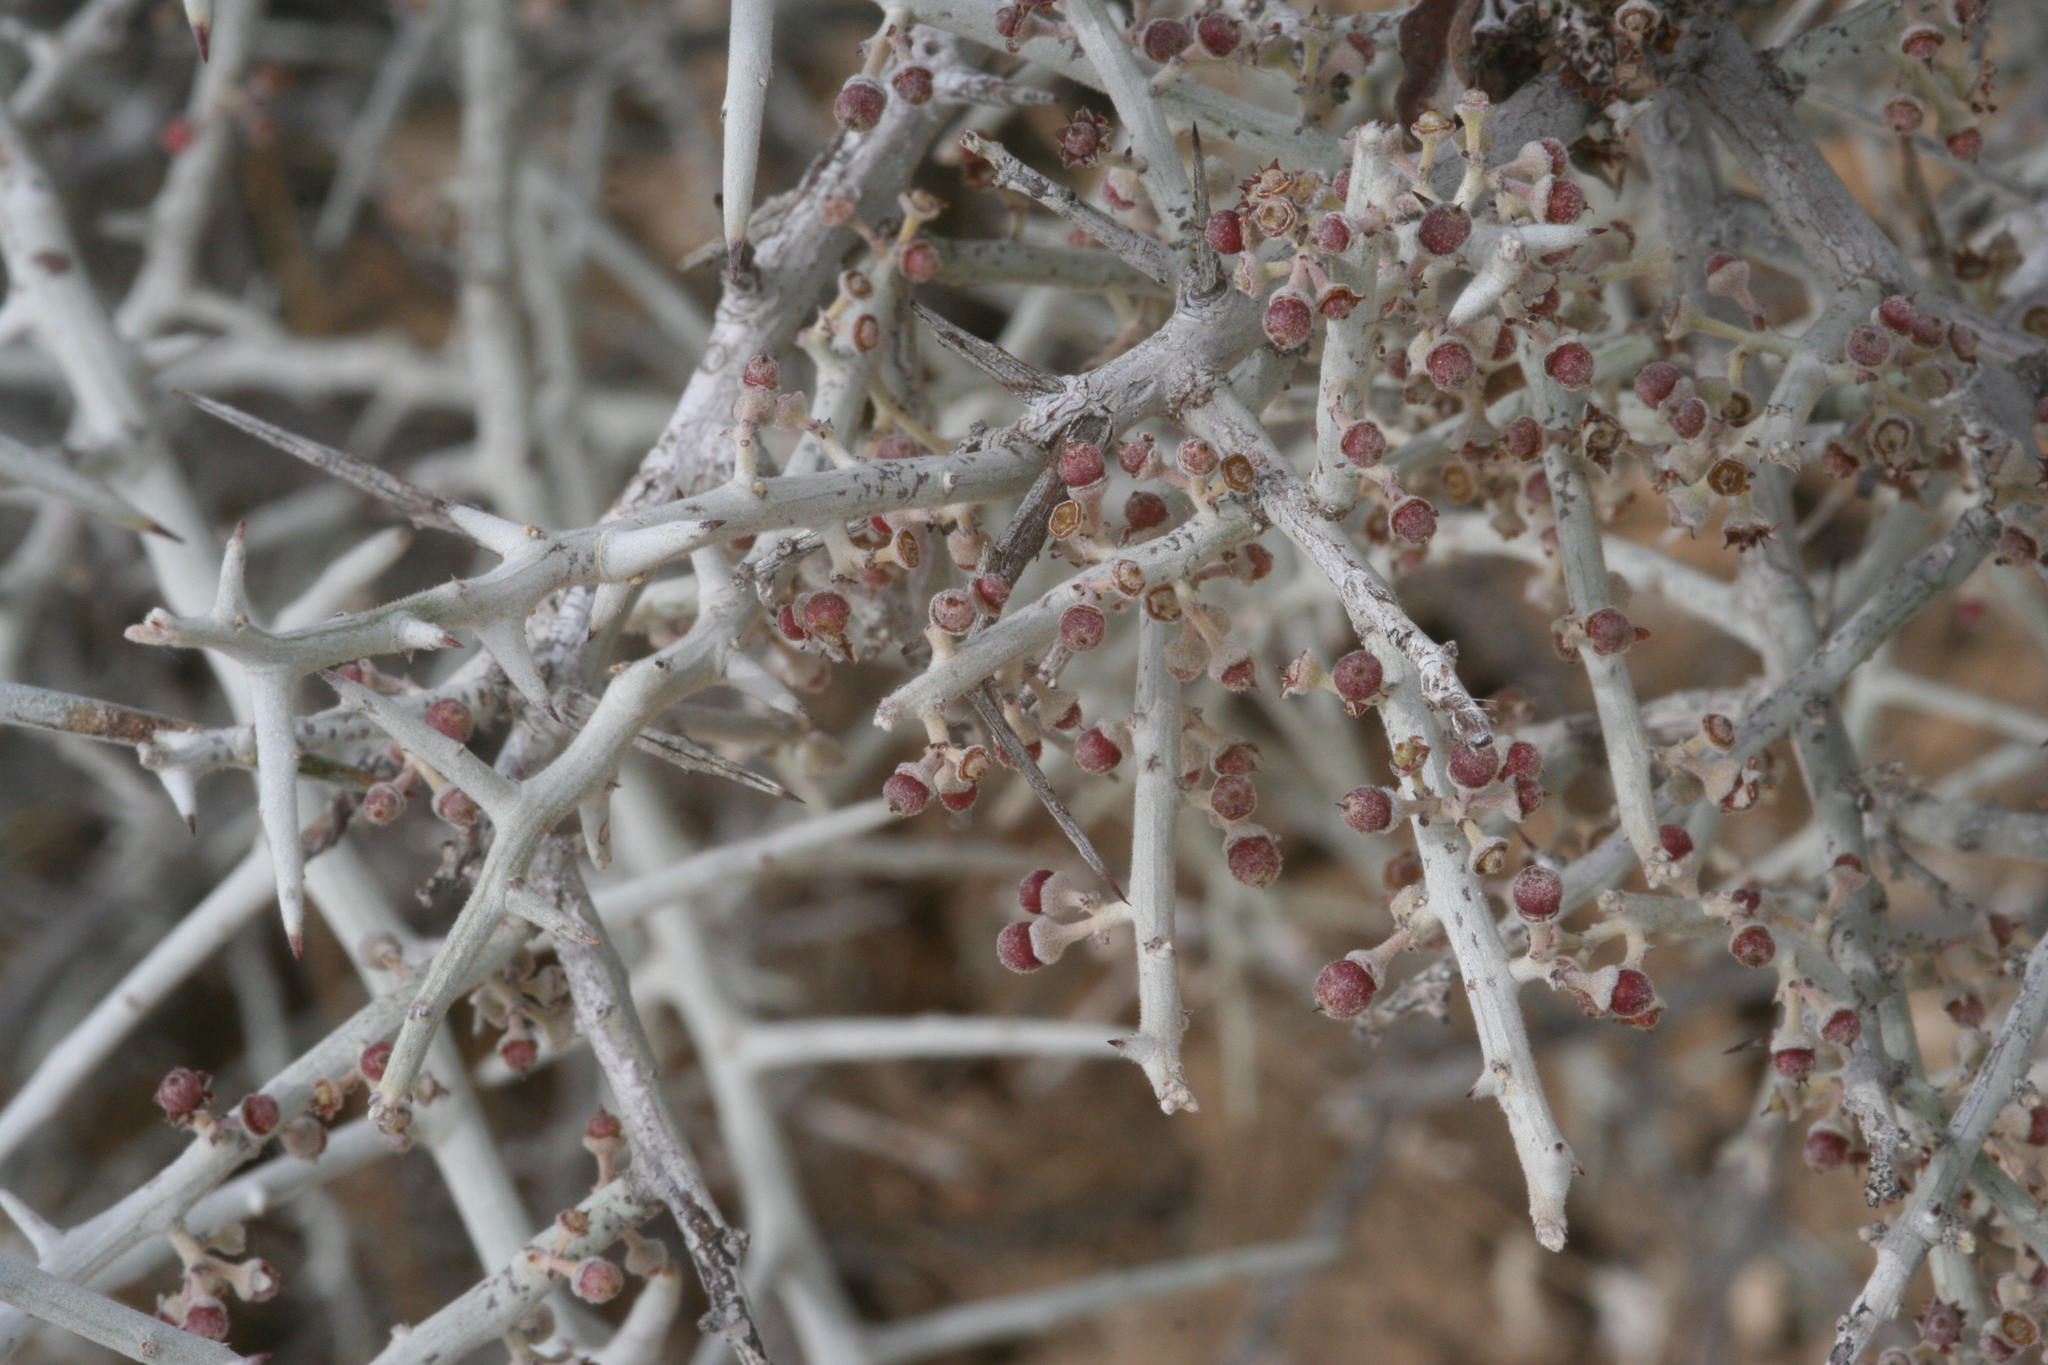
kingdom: Plantae
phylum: Tracheophyta
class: Magnoliopsida
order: Rosales
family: Rhamnaceae
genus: Sarcomphalus
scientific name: Sarcomphalus obtusifolius
